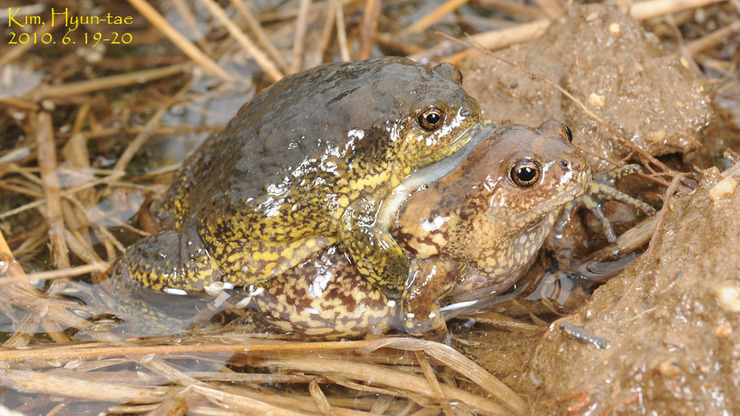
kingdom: Animalia
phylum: Chordata
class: Amphibia
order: Anura
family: Microhylidae
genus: Kaloula
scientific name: Kaloula borealis
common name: Boreal digging frog
